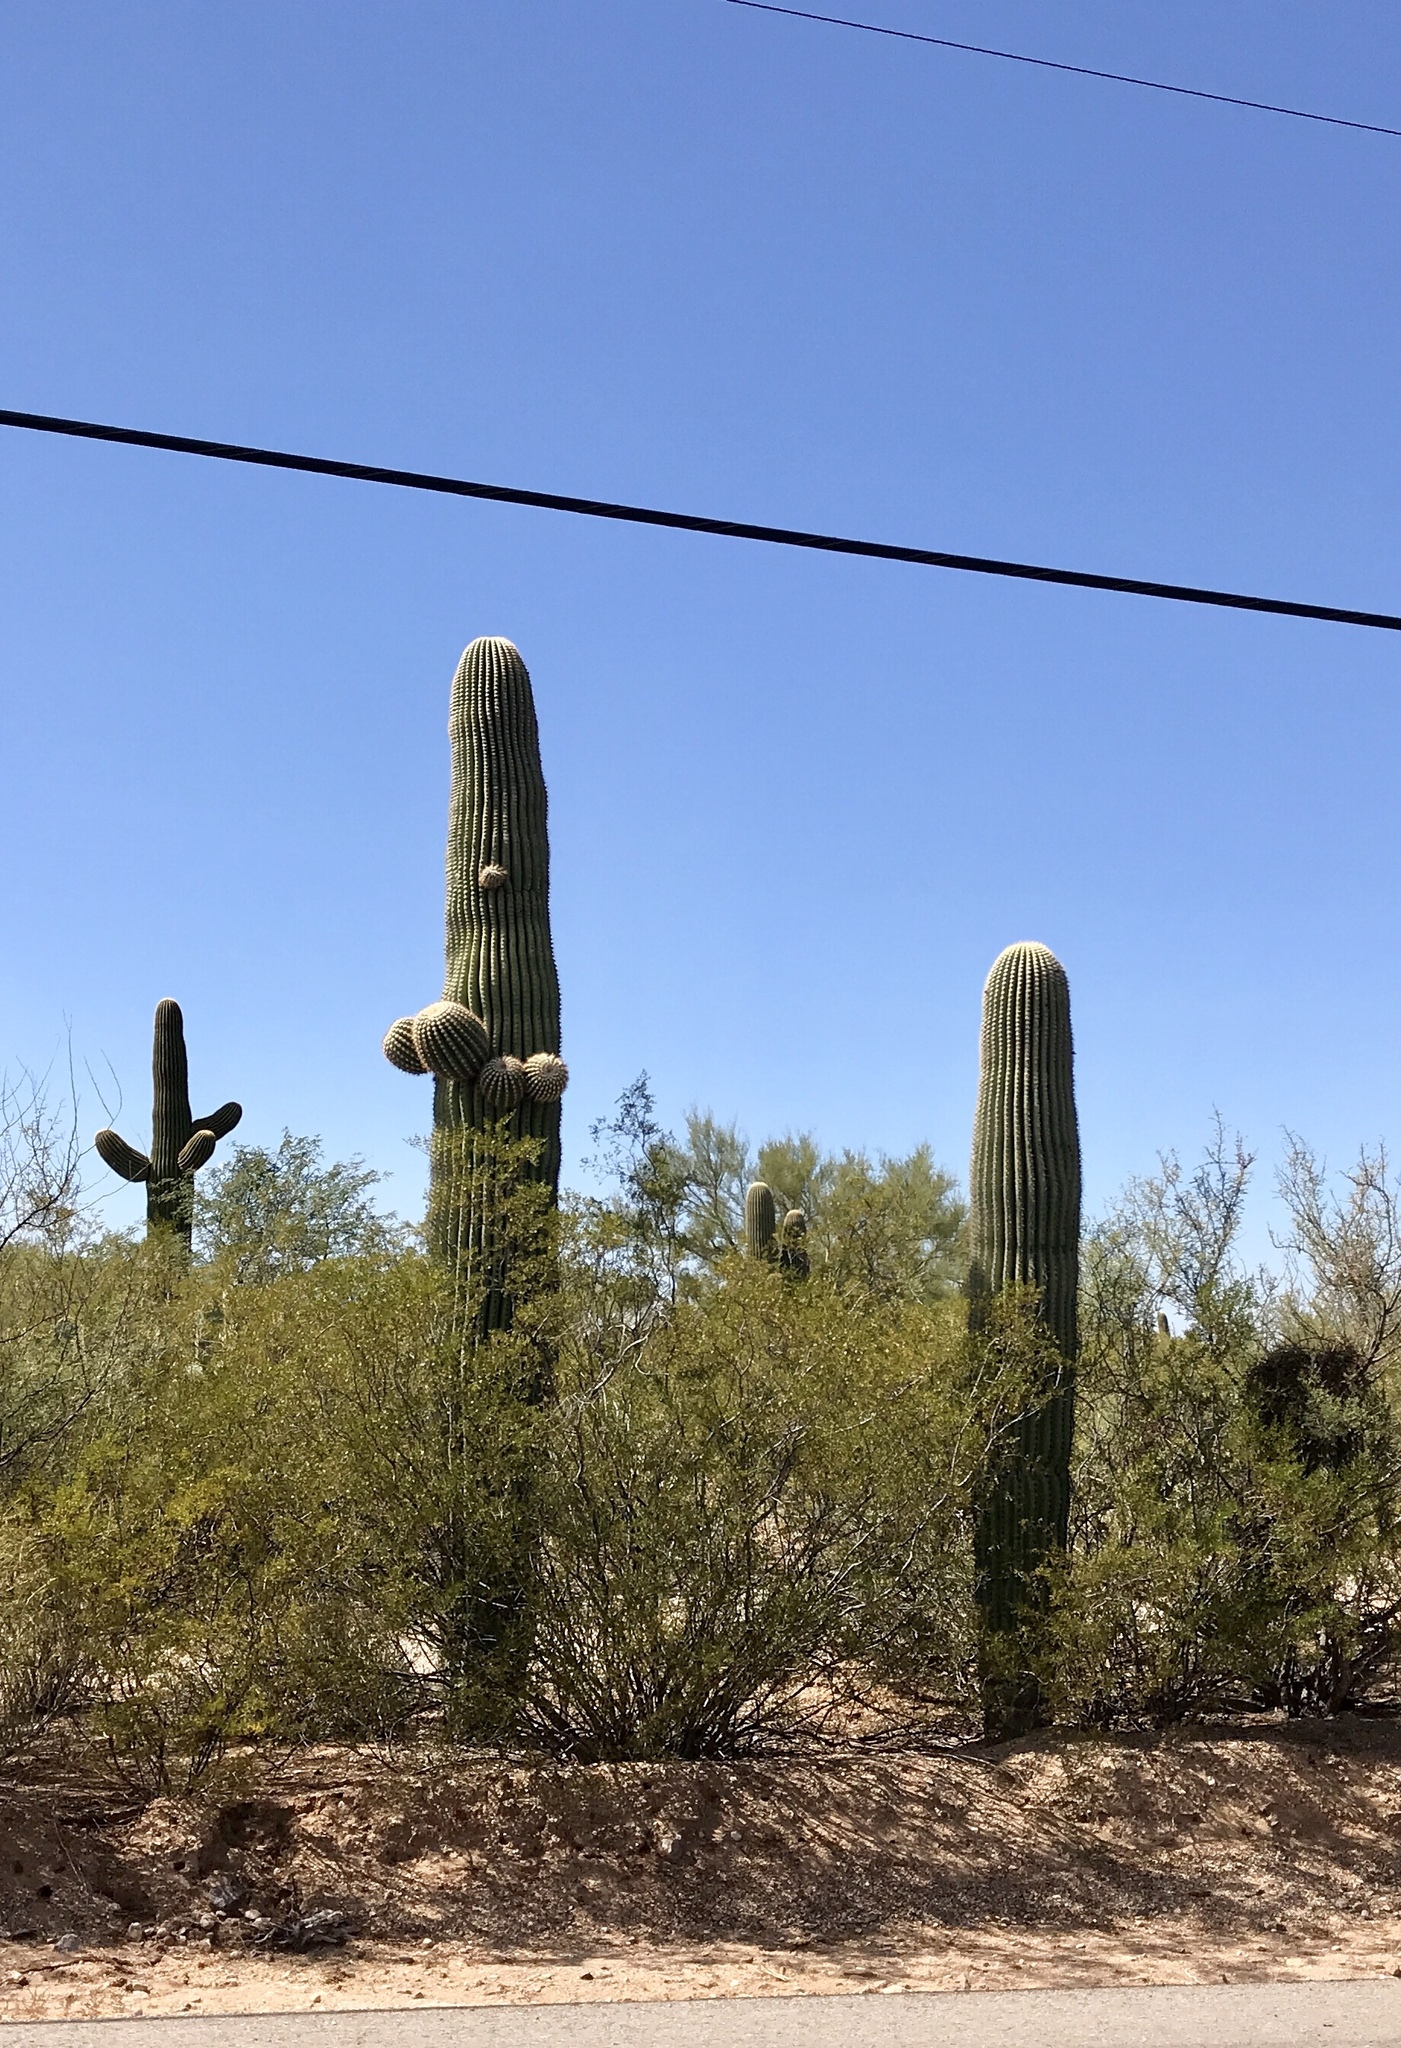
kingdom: Plantae
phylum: Tracheophyta
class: Magnoliopsida
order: Caryophyllales
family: Cactaceae
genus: Carnegiea
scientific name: Carnegiea gigantea
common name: Saguaro
